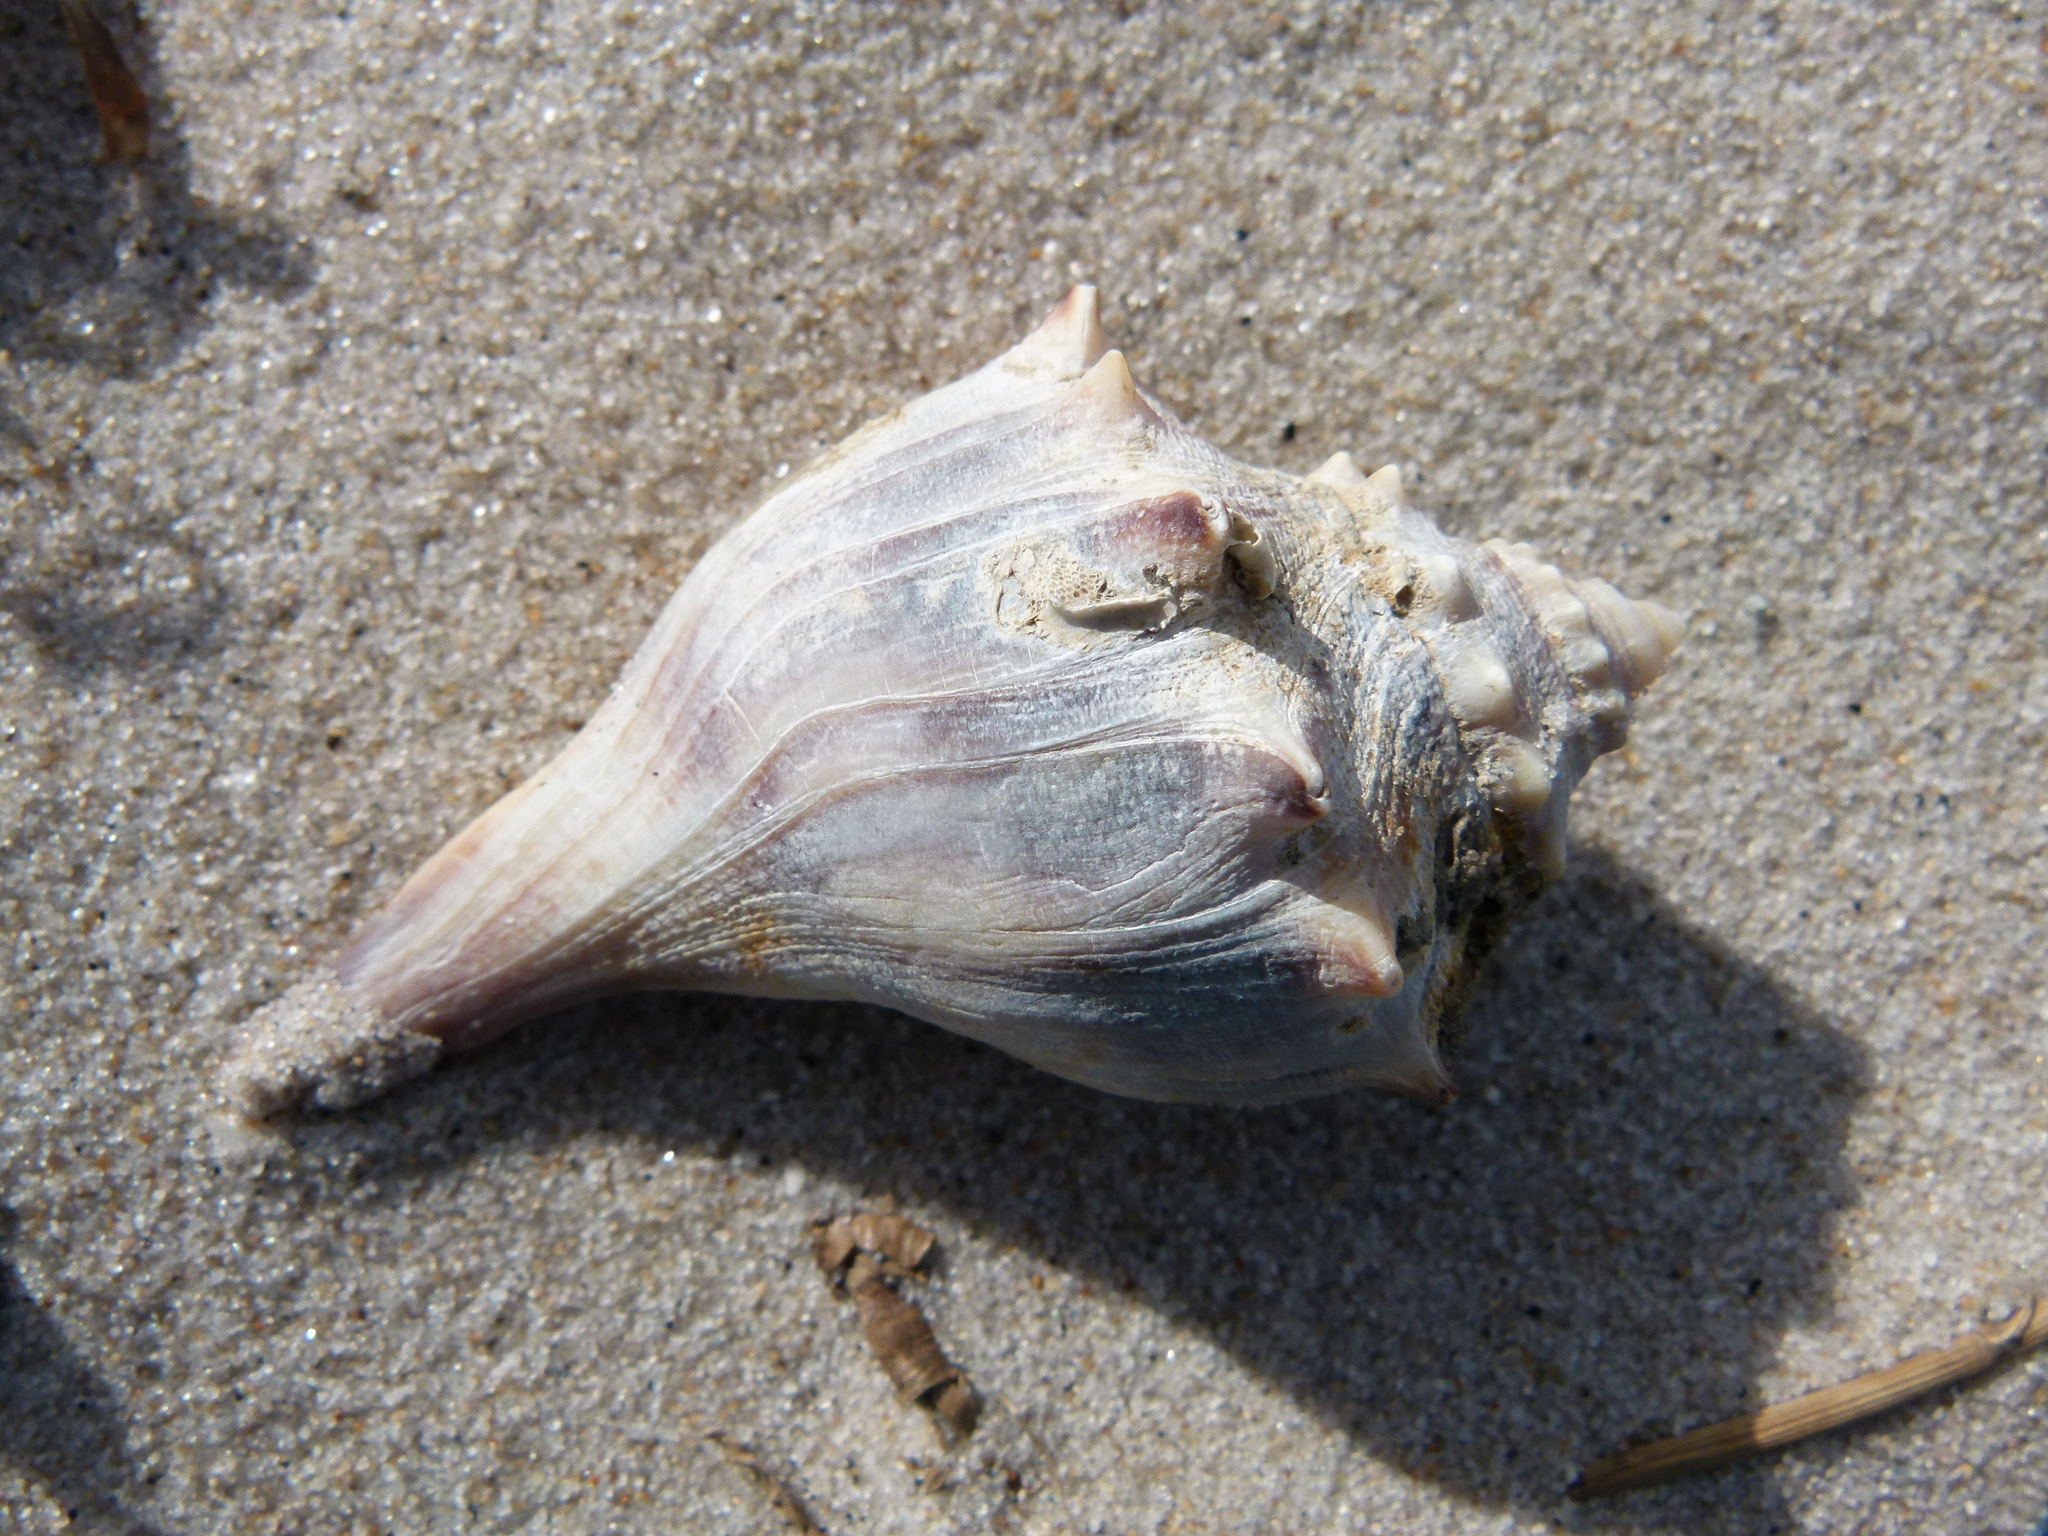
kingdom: Animalia
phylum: Mollusca
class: Gastropoda
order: Neogastropoda
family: Busyconidae
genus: Busycon
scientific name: Busycon carica
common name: Knobbed whelk
